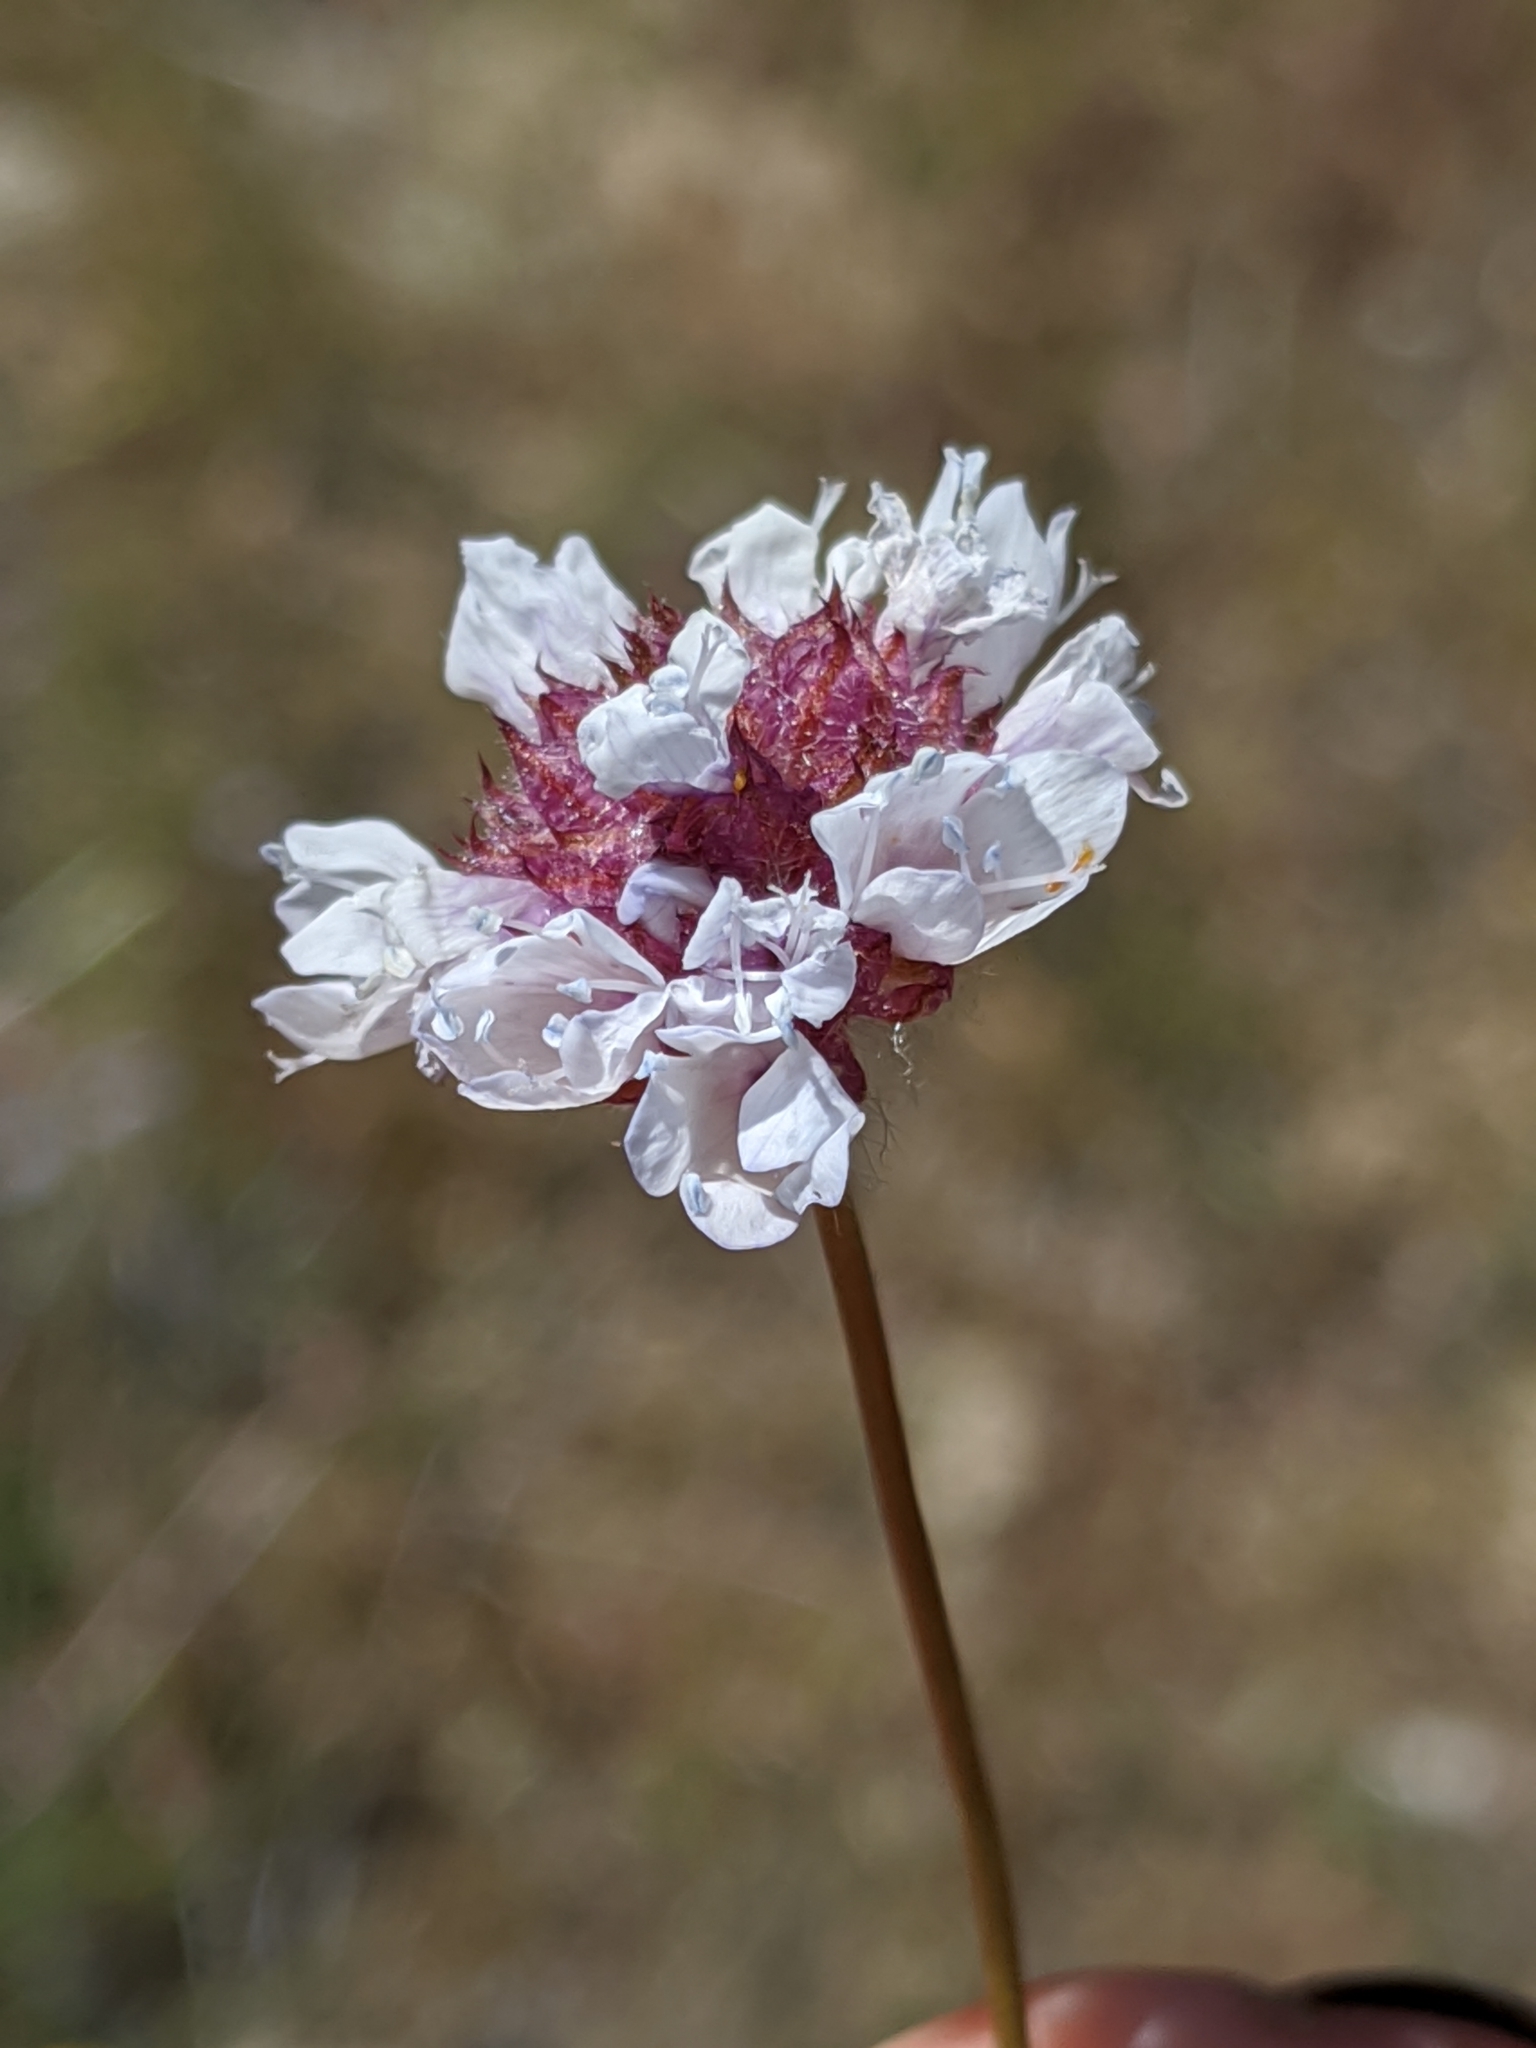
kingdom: Plantae
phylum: Tracheophyta
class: Magnoliopsida
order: Ericales
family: Polemoniaceae
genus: Gilia
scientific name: Gilia capitata
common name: Bluehead gilia
